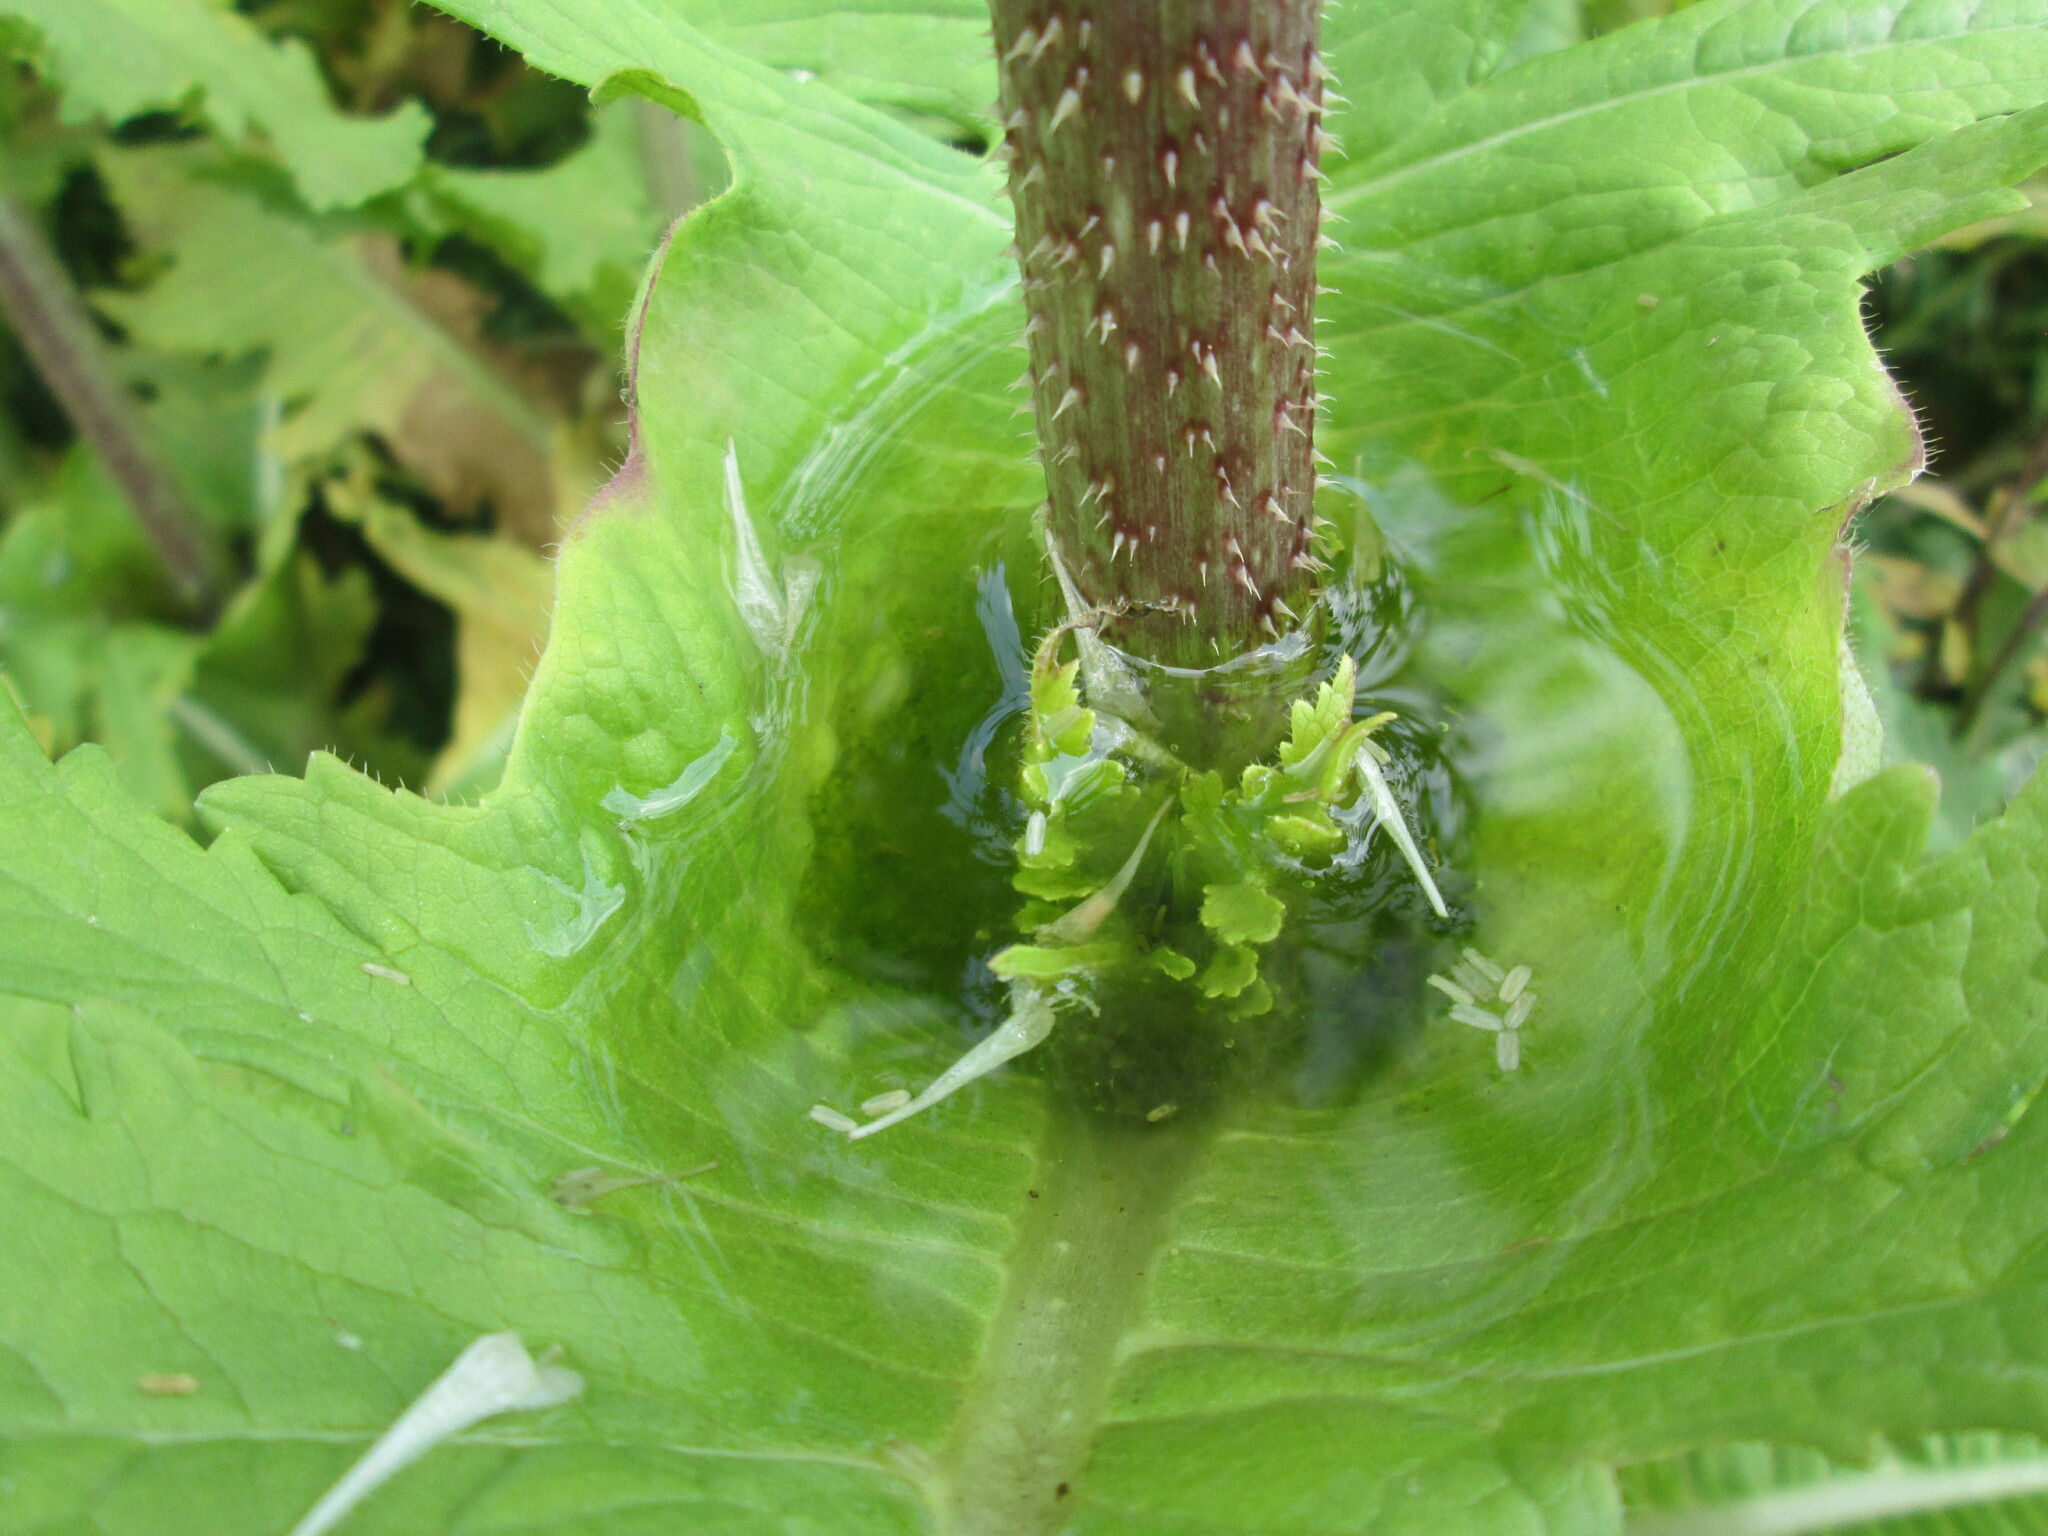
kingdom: Plantae
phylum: Tracheophyta
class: Magnoliopsida
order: Dipsacales
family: Caprifoliaceae
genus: Dipsacus
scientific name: Dipsacus laciniatus
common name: Cut-leaved teasel
